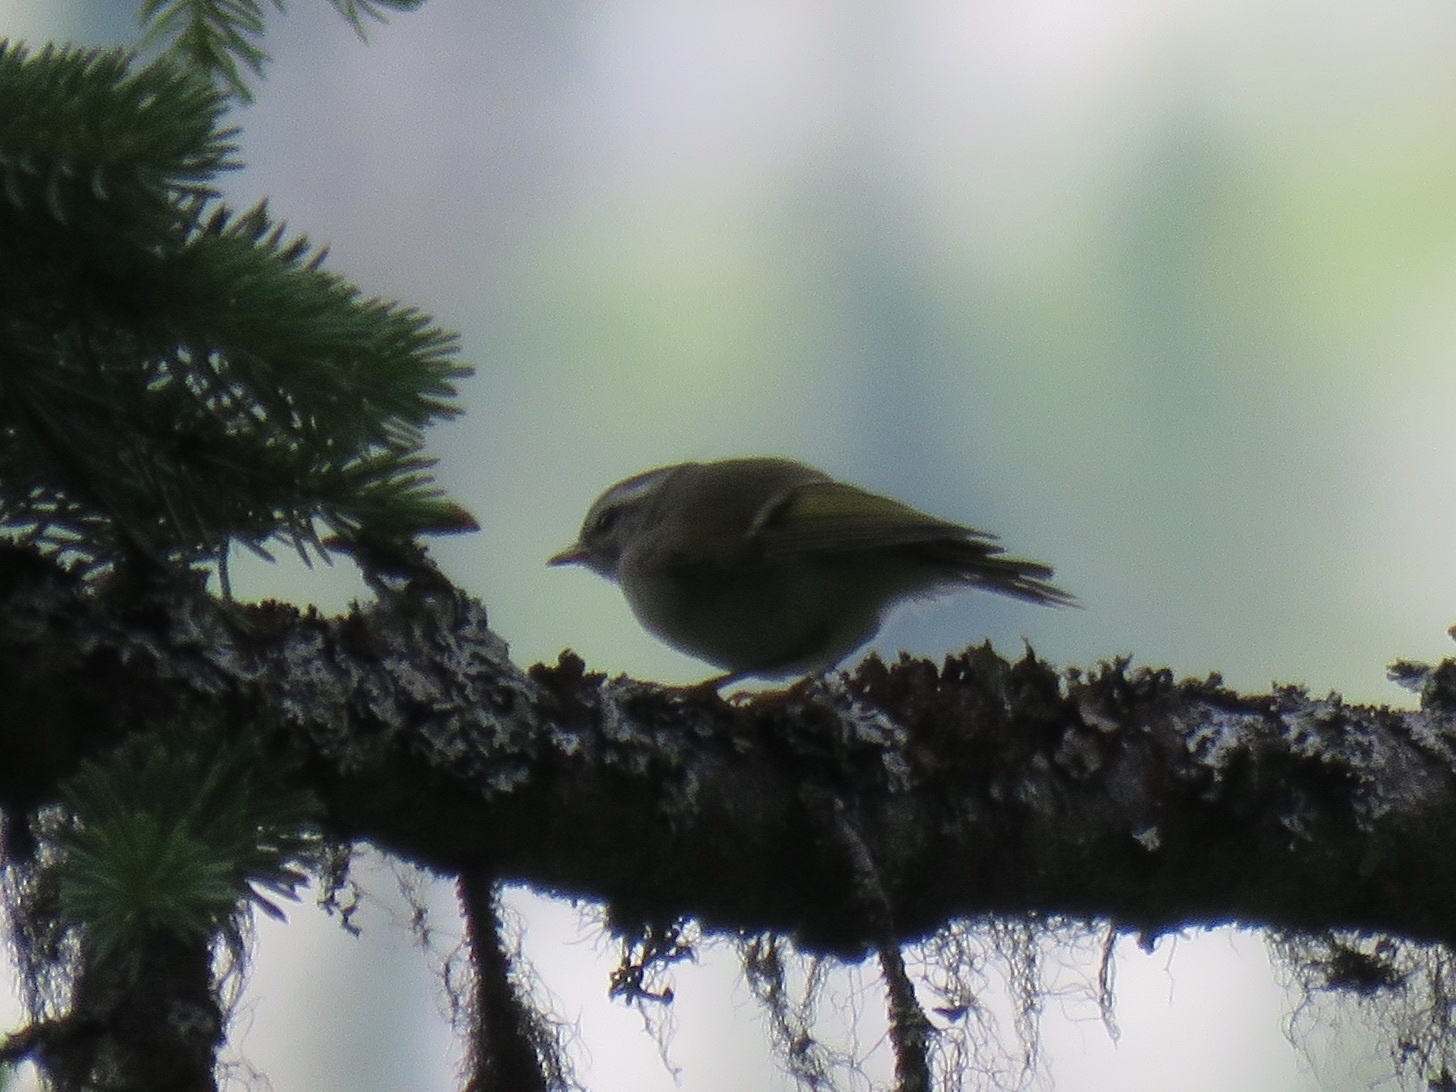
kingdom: Animalia
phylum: Chordata
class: Aves
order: Passeriformes
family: Regulidae
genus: Regulus
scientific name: Regulus satrapa
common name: Golden-crowned kinglet
